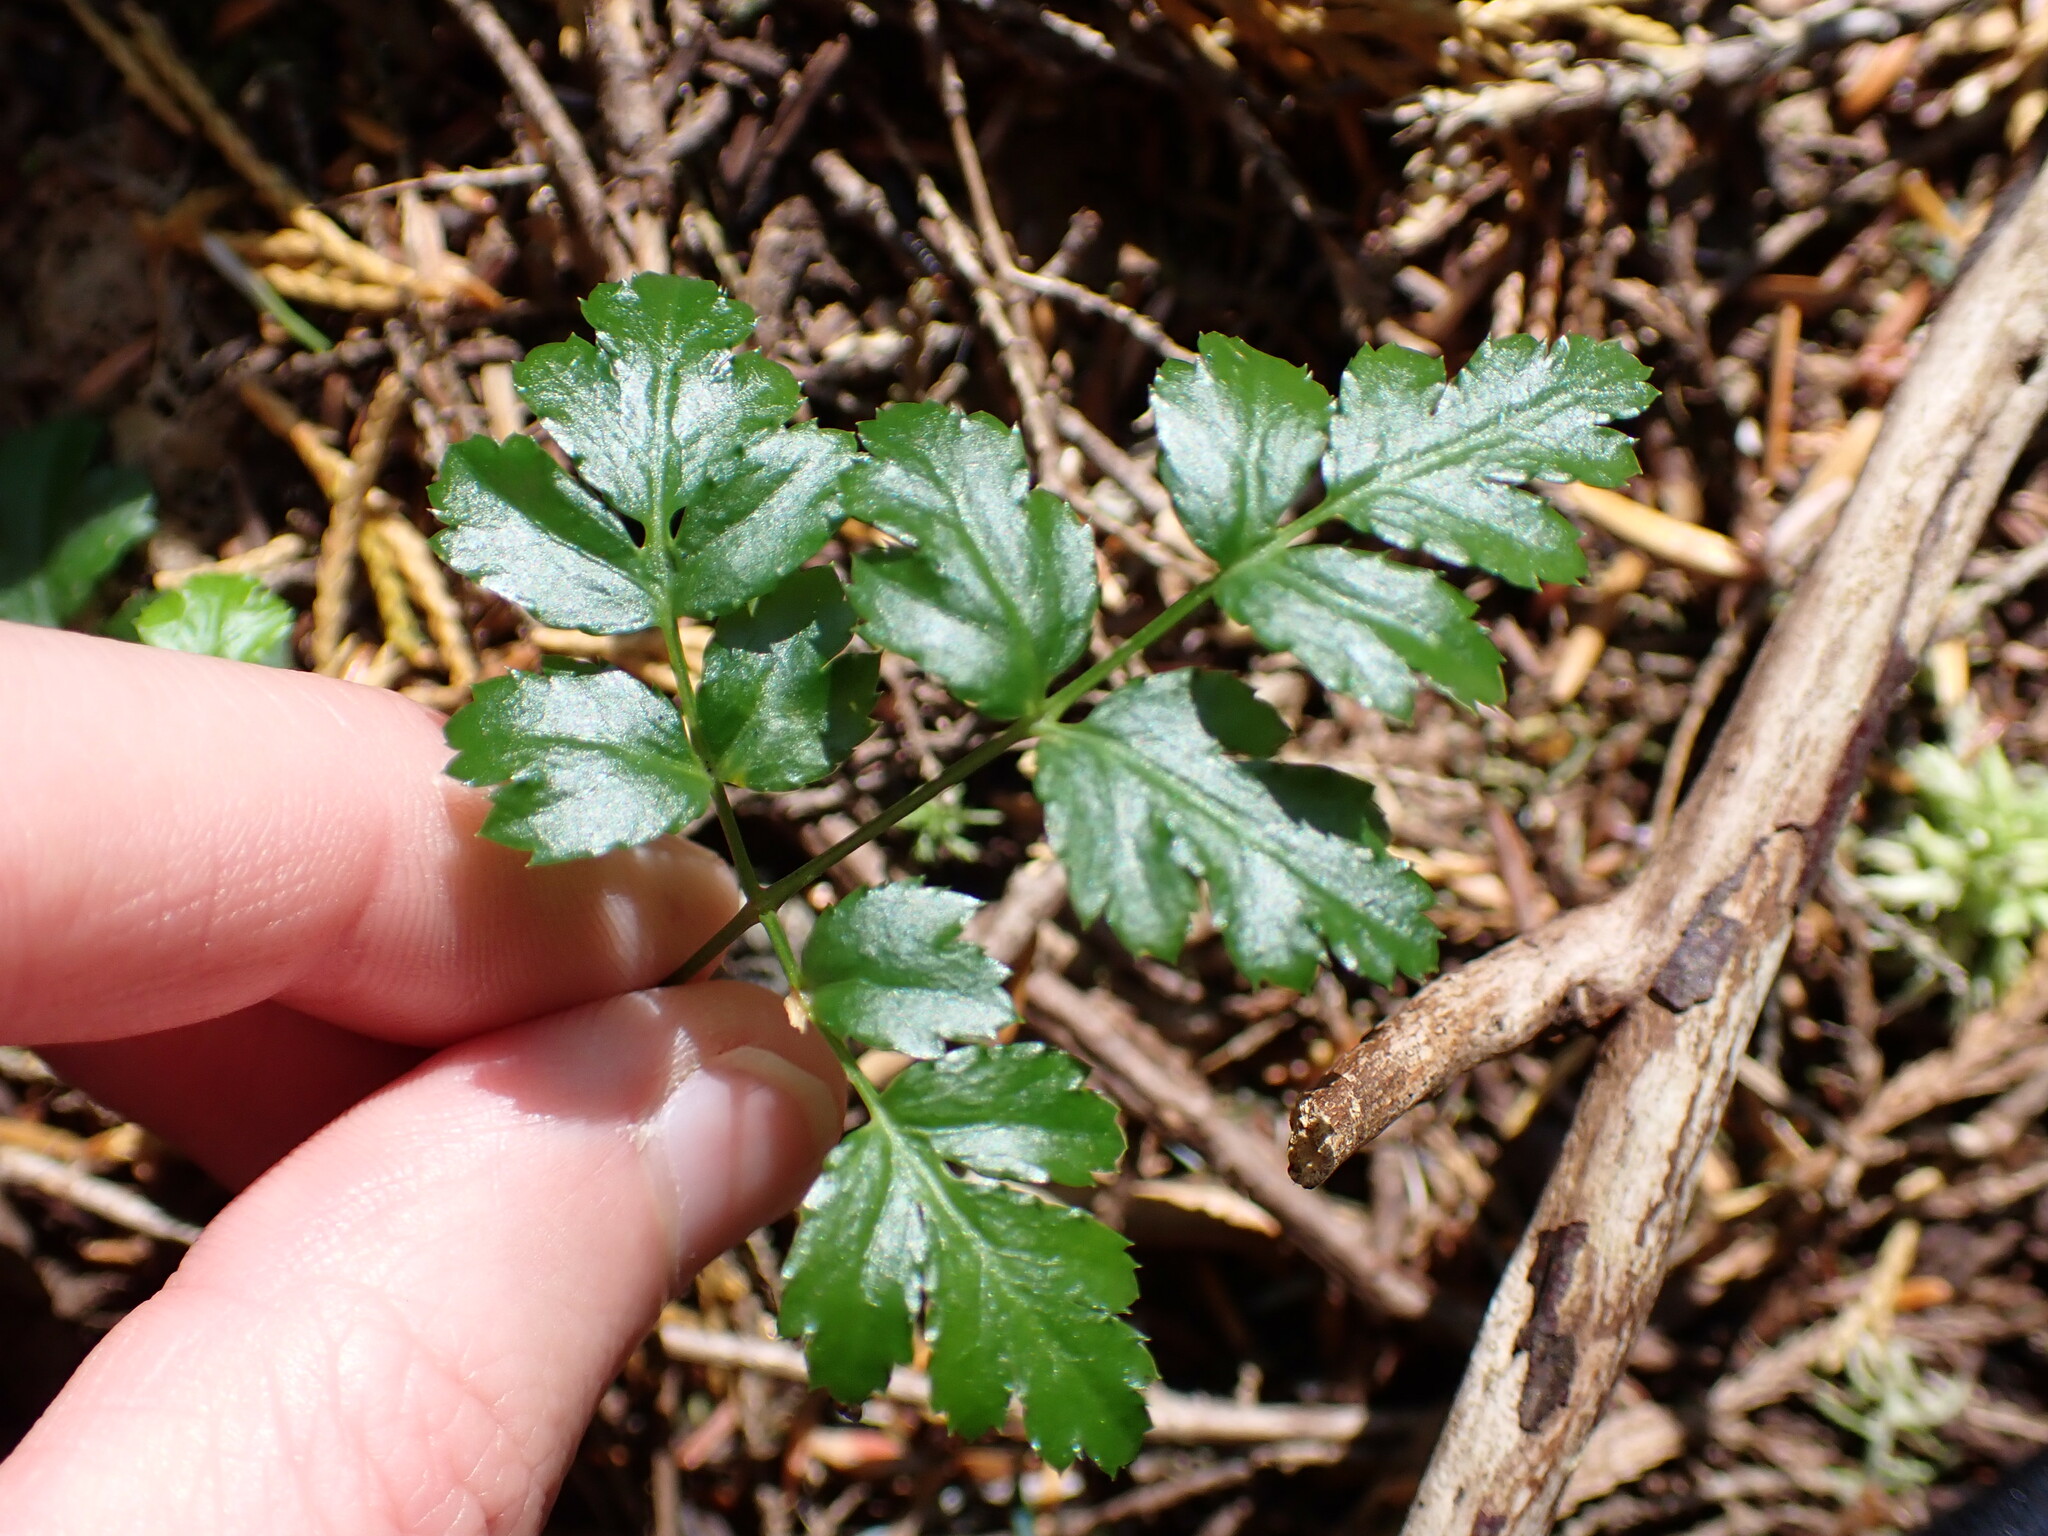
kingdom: Plantae
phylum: Tracheophyta
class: Magnoliopsida
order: Ranunculales
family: Ranunculaceae
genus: Coptis
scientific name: Coptis aspleniifolia
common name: Fern-leaved goldthread
